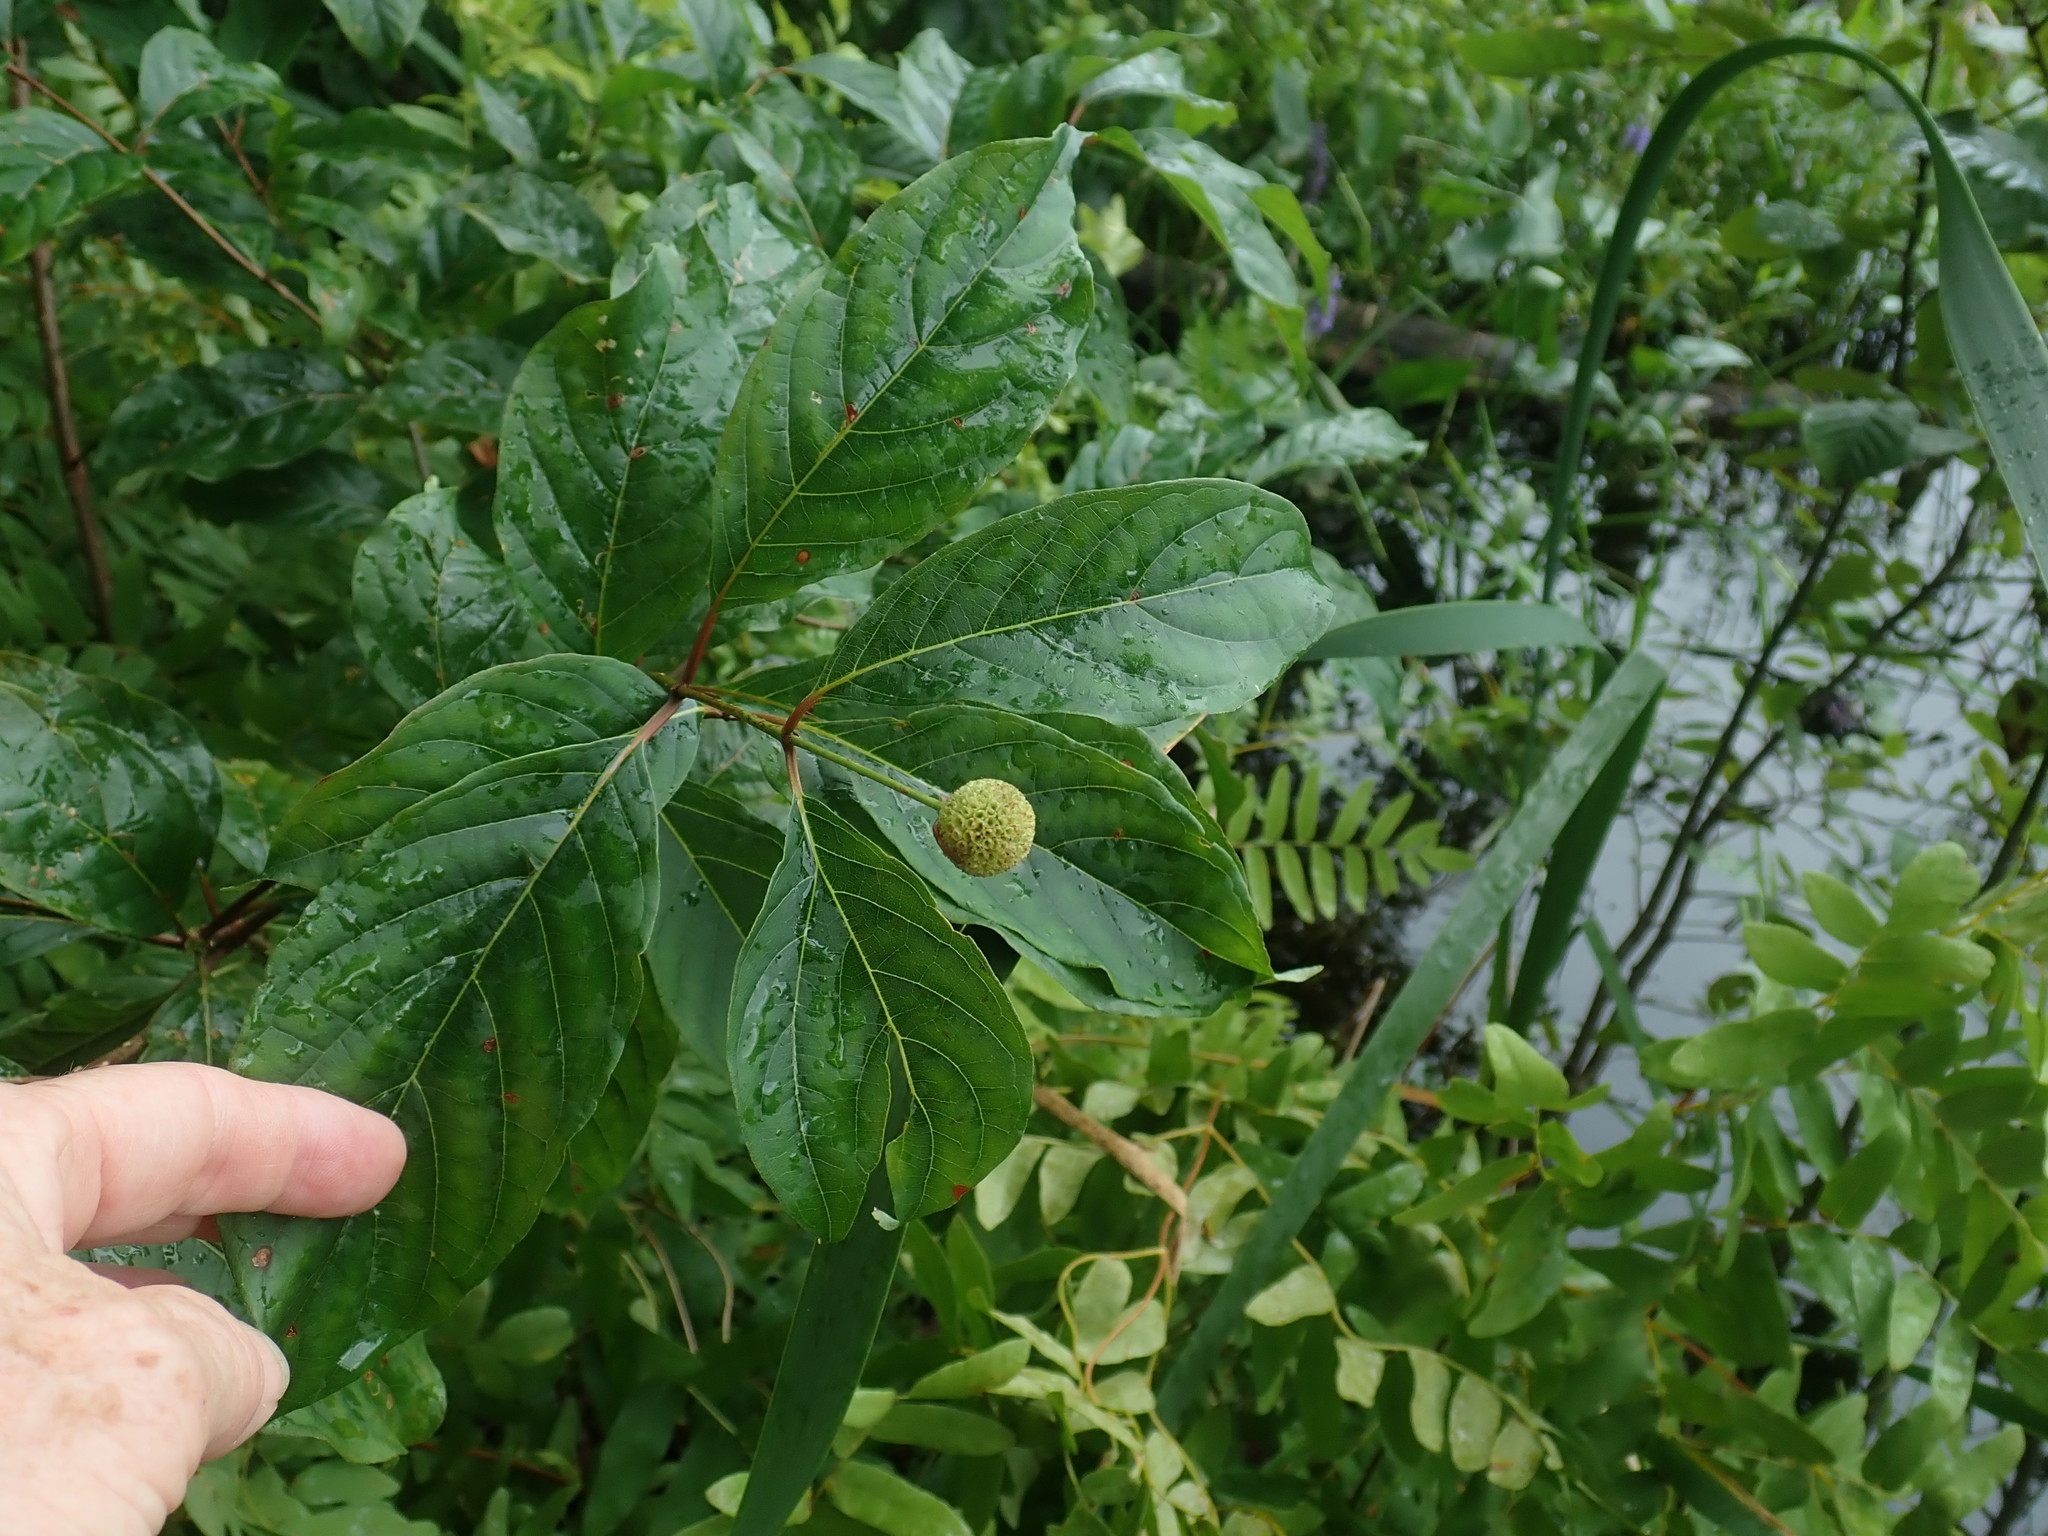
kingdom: Plantae
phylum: Tracheophyta
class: Magnoliopsida
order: Gentianales
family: Rubiaceae
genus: Cephalanthus
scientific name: Cephalanthus occidentalis
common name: Button-willow
